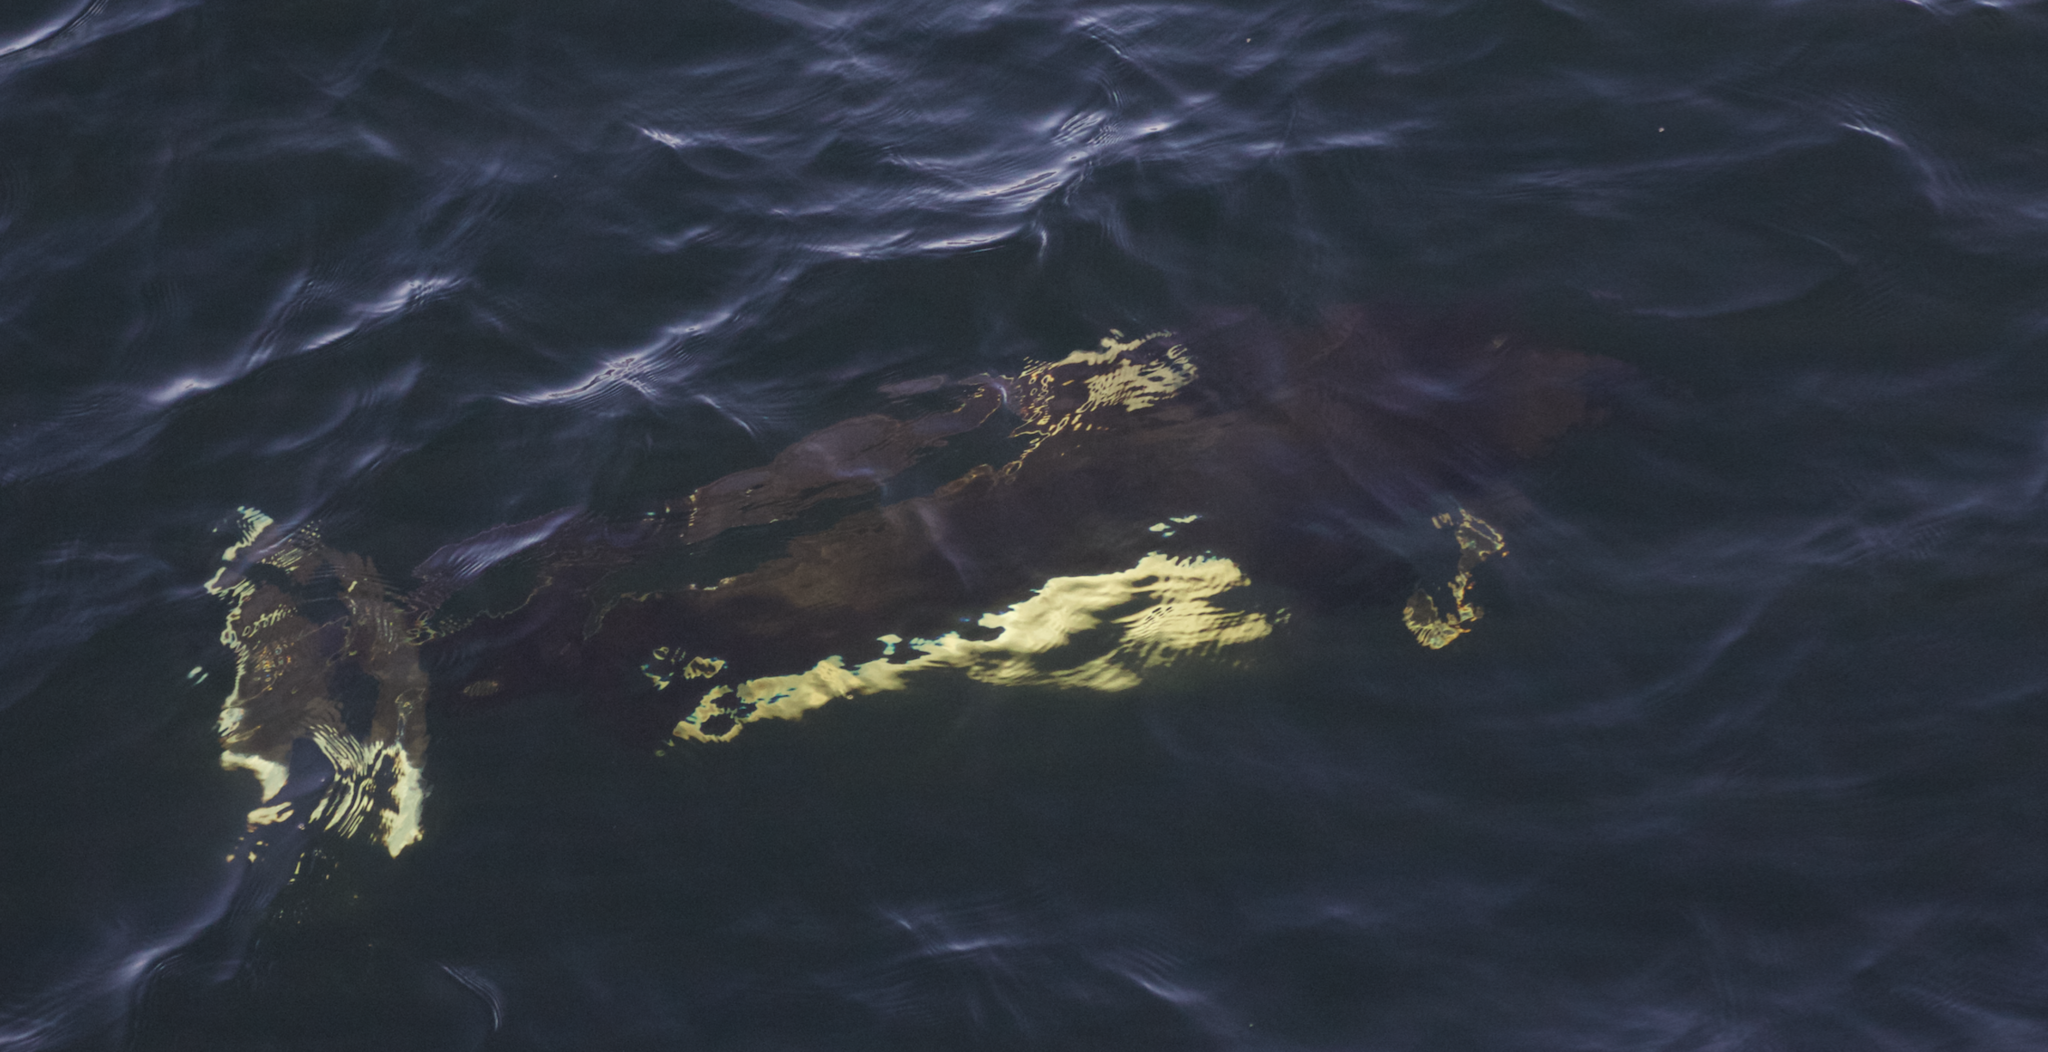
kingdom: Animalia
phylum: Chordata
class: Mammalia
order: Cetacea
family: Phocoenidae
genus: Phocoenoides
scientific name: Phocoenoides dalli
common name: Dall's porpoise
